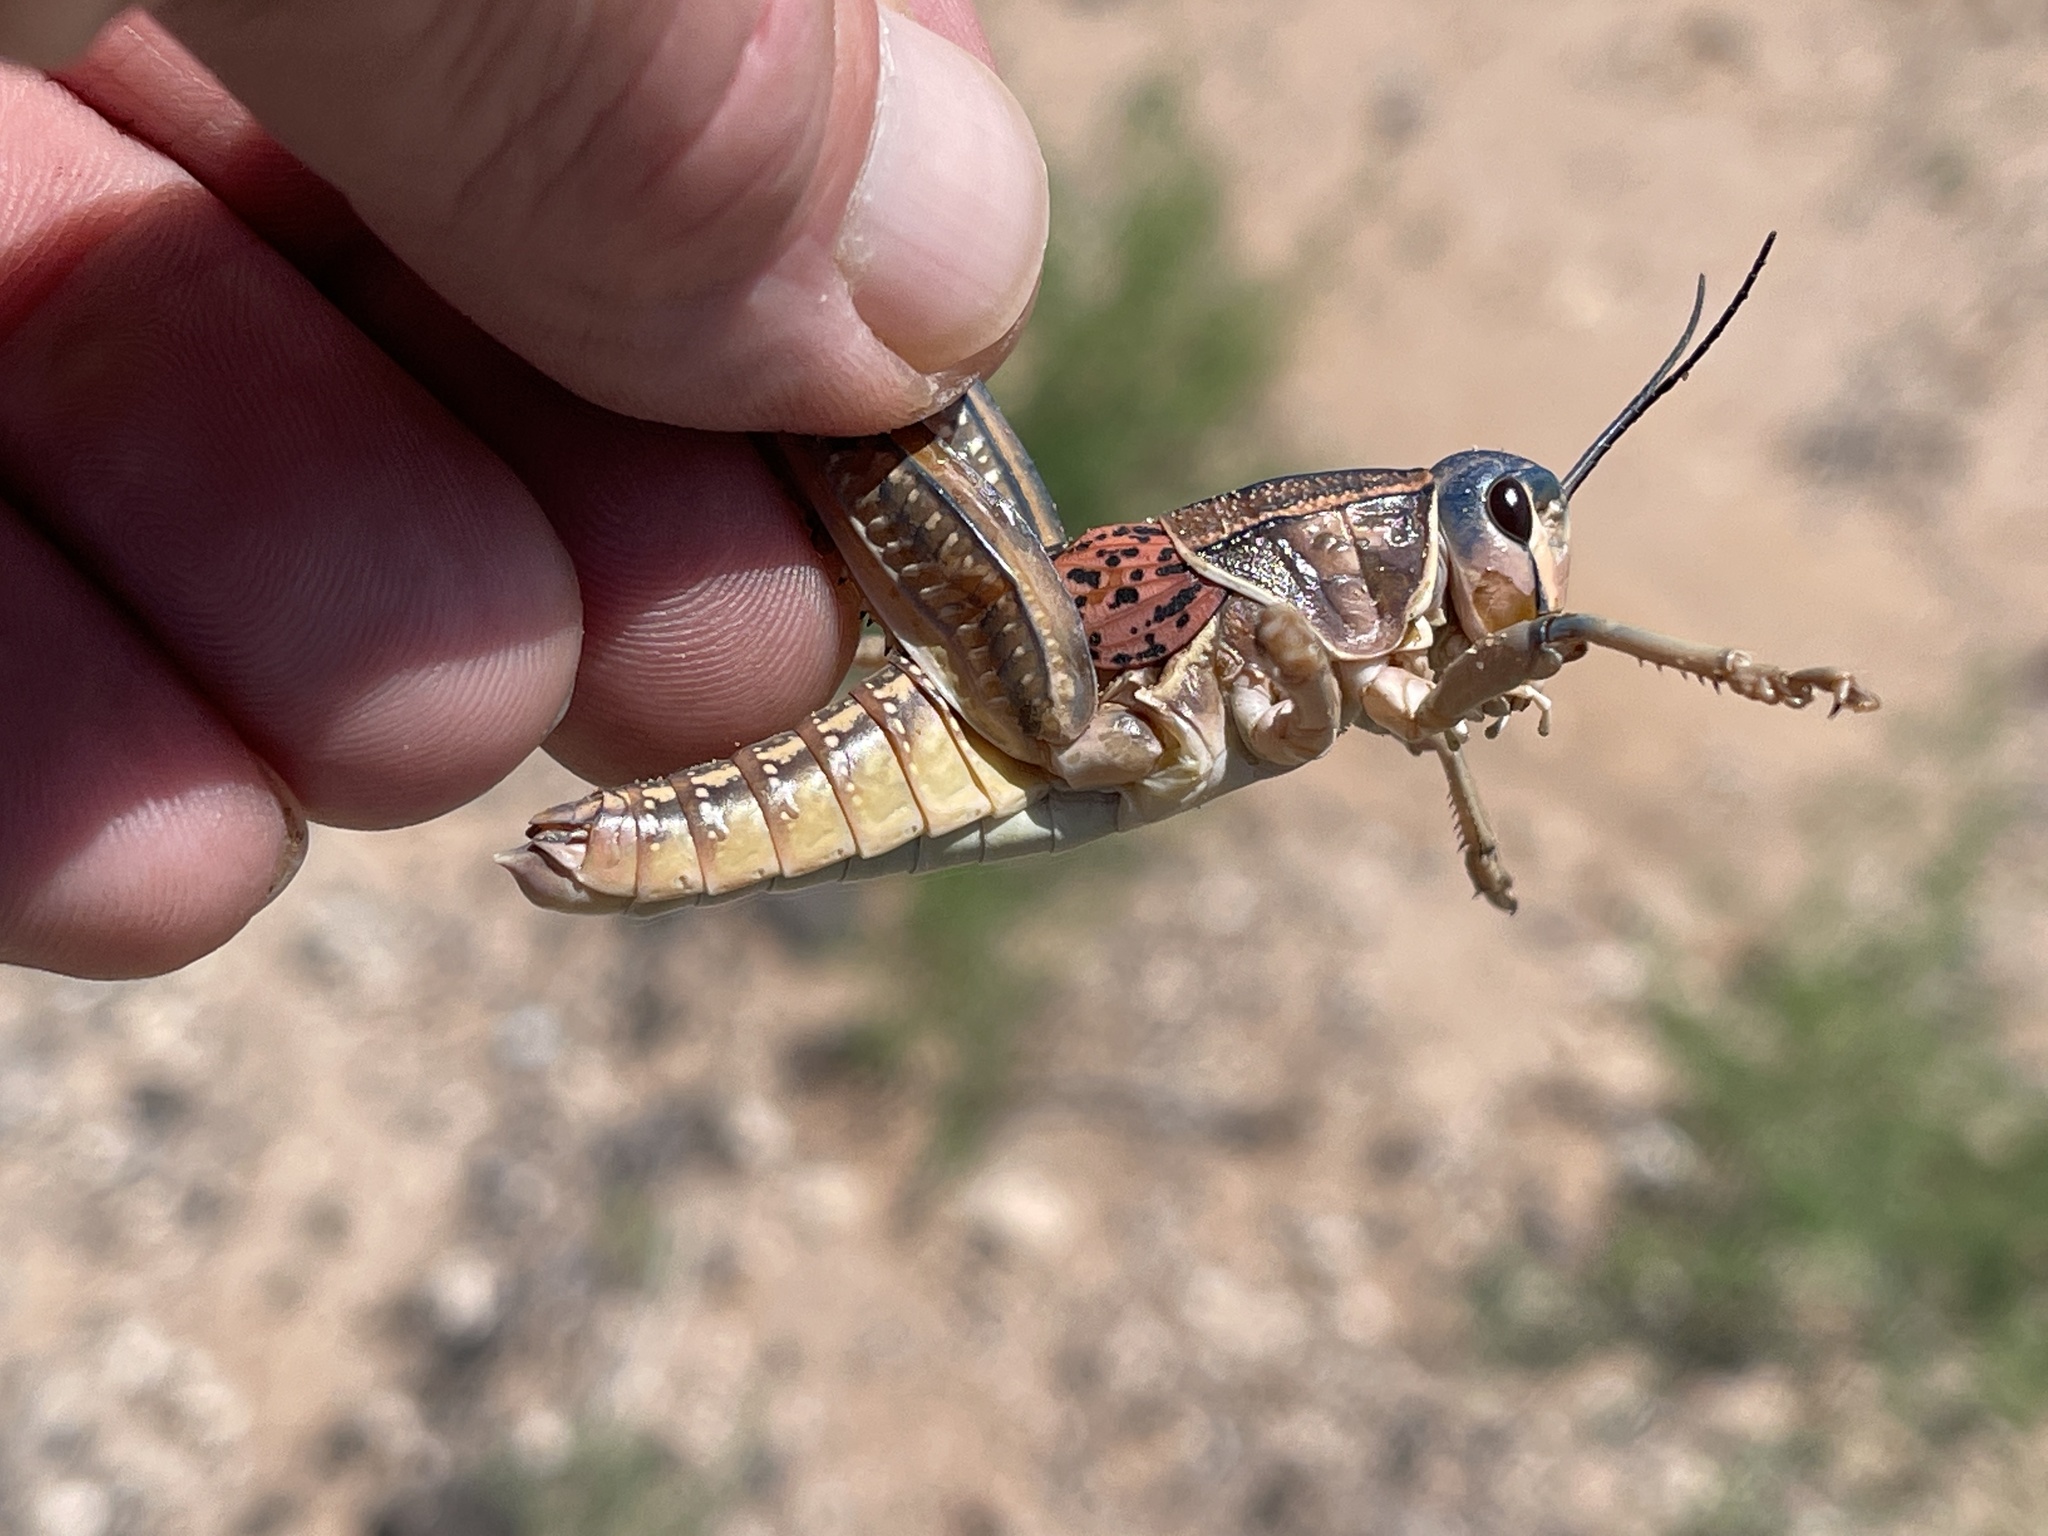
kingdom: Animalia
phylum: Arthropoda
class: Insecta
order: Orthoptera
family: Romaleidae
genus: Brachystola
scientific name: Brachystola magna
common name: Plains lubber grasshopper
